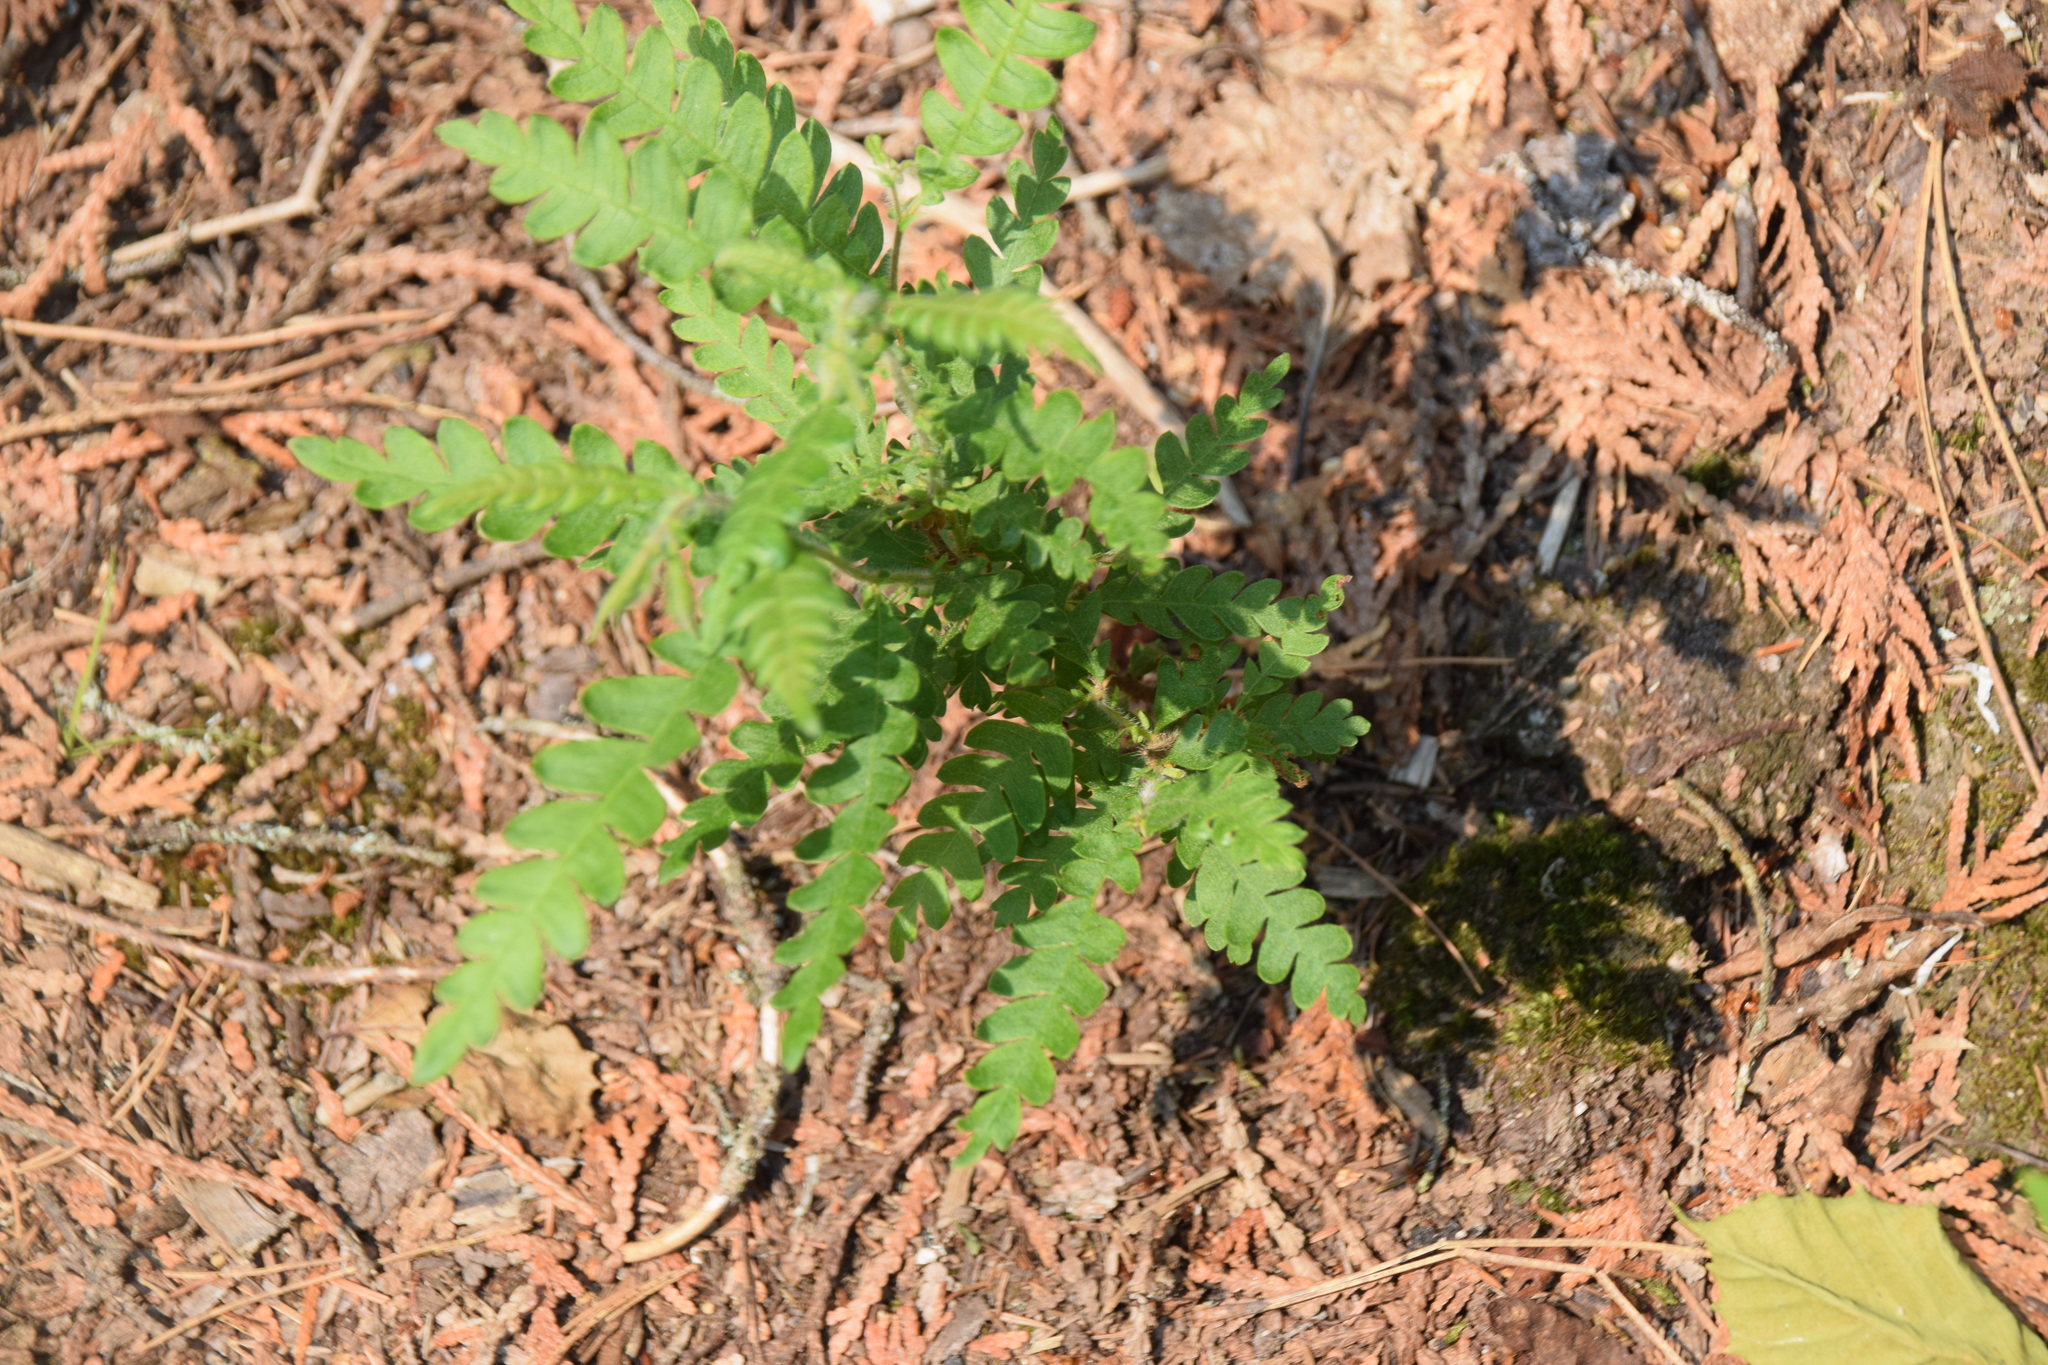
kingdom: Plantae
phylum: Tracheophyta
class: Magnoliopsida
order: Fagales
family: Myricaceae
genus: Comptonia
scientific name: Comptonia peregrina
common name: Sweet-fern
